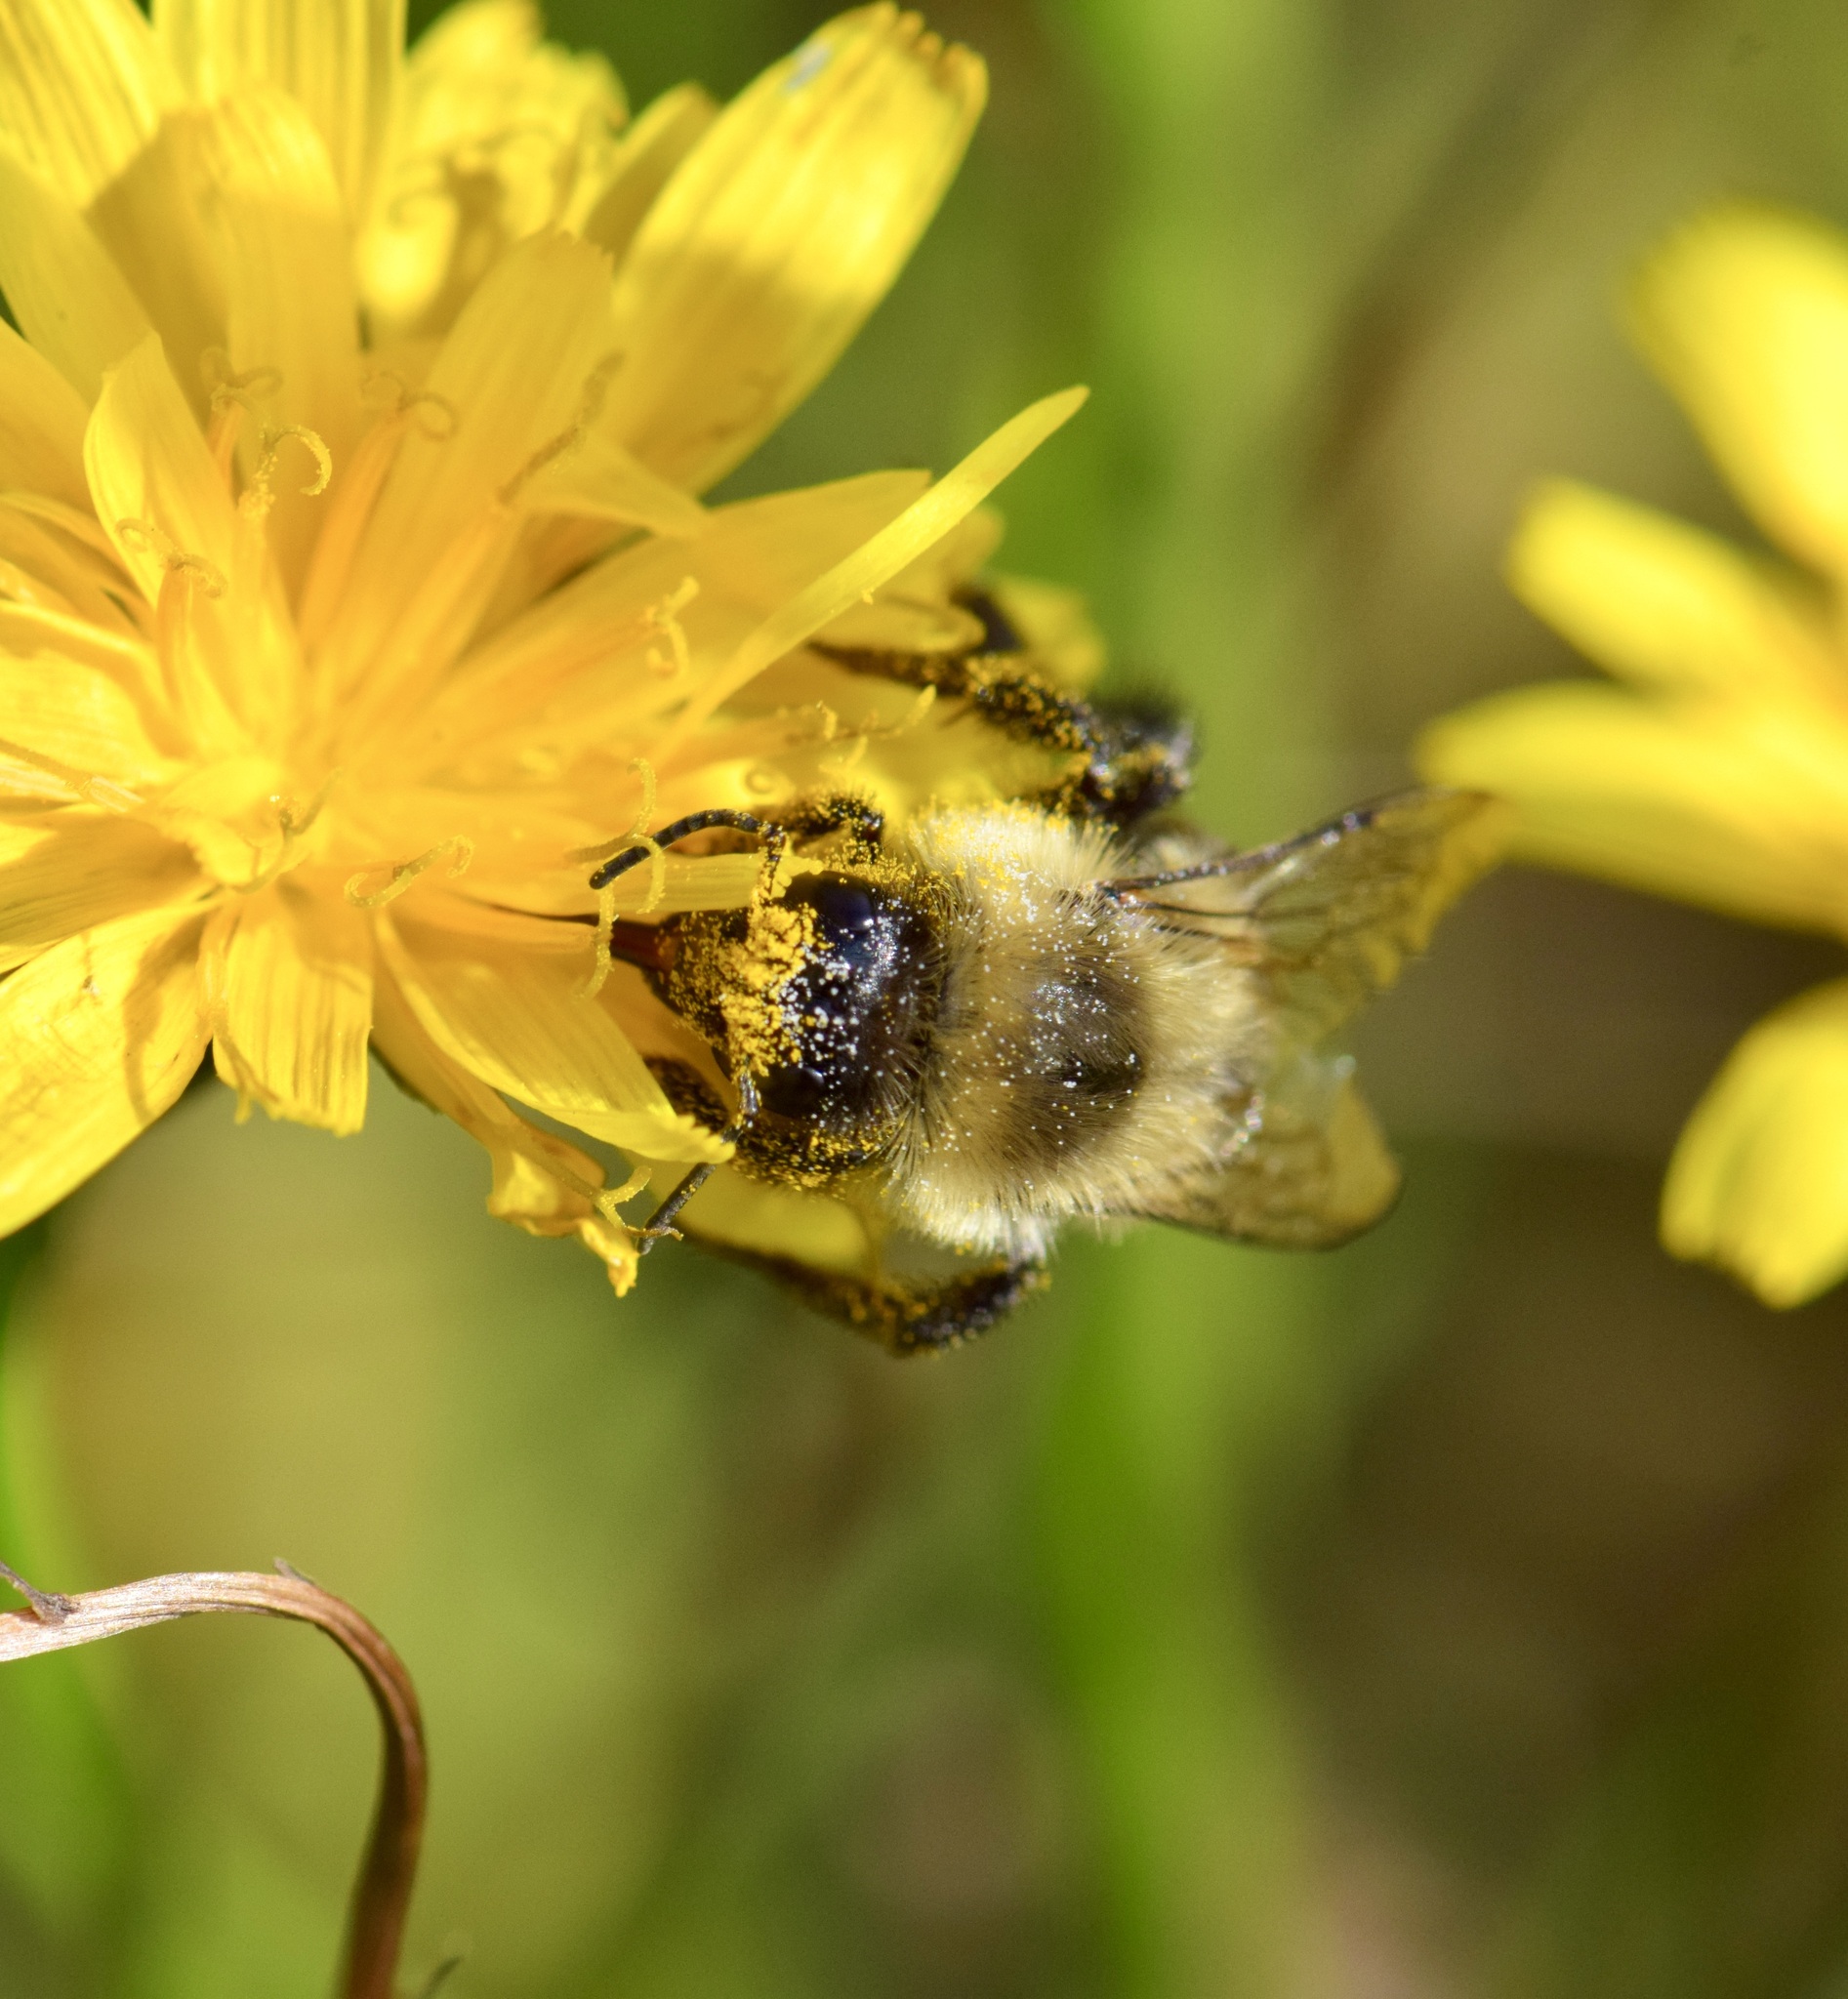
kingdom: Animalia
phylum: Arthropoda
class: Insecta
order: Hymenoptera
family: Apidae
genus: Bombus
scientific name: Bombus impatiens
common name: Common eastern bumble bee
